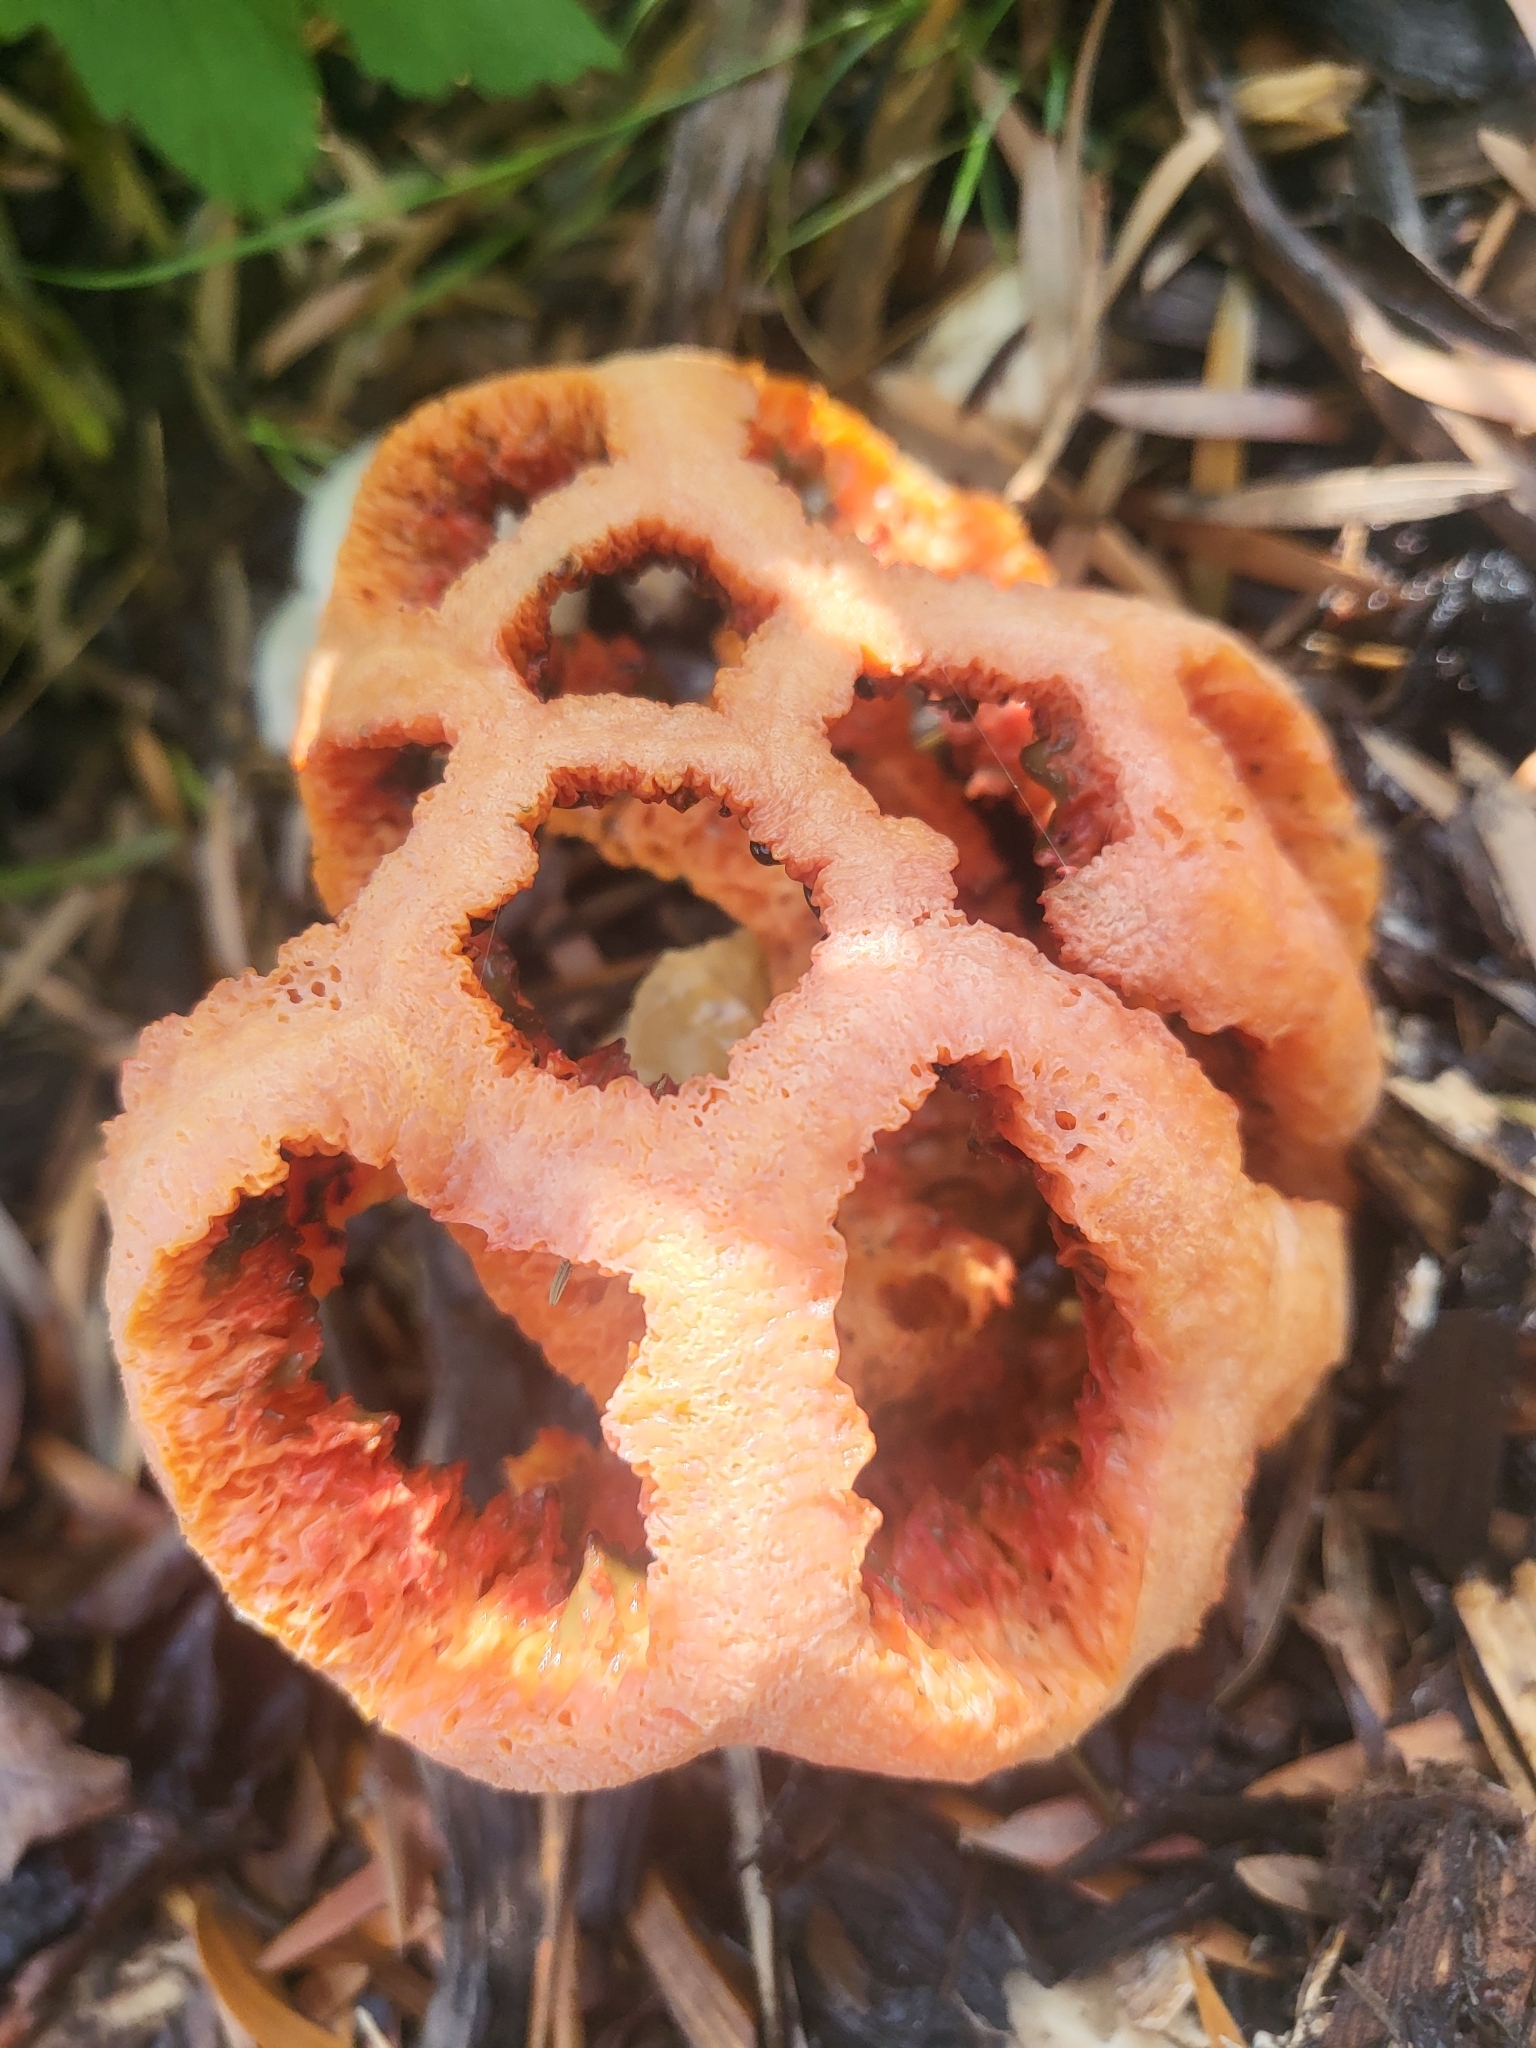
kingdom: Fungi
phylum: Basidiomycota
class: Agaricomycetes
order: Phallales
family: Phallaceae
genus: Clathrus
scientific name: Clathrus ruber
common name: Red cage
